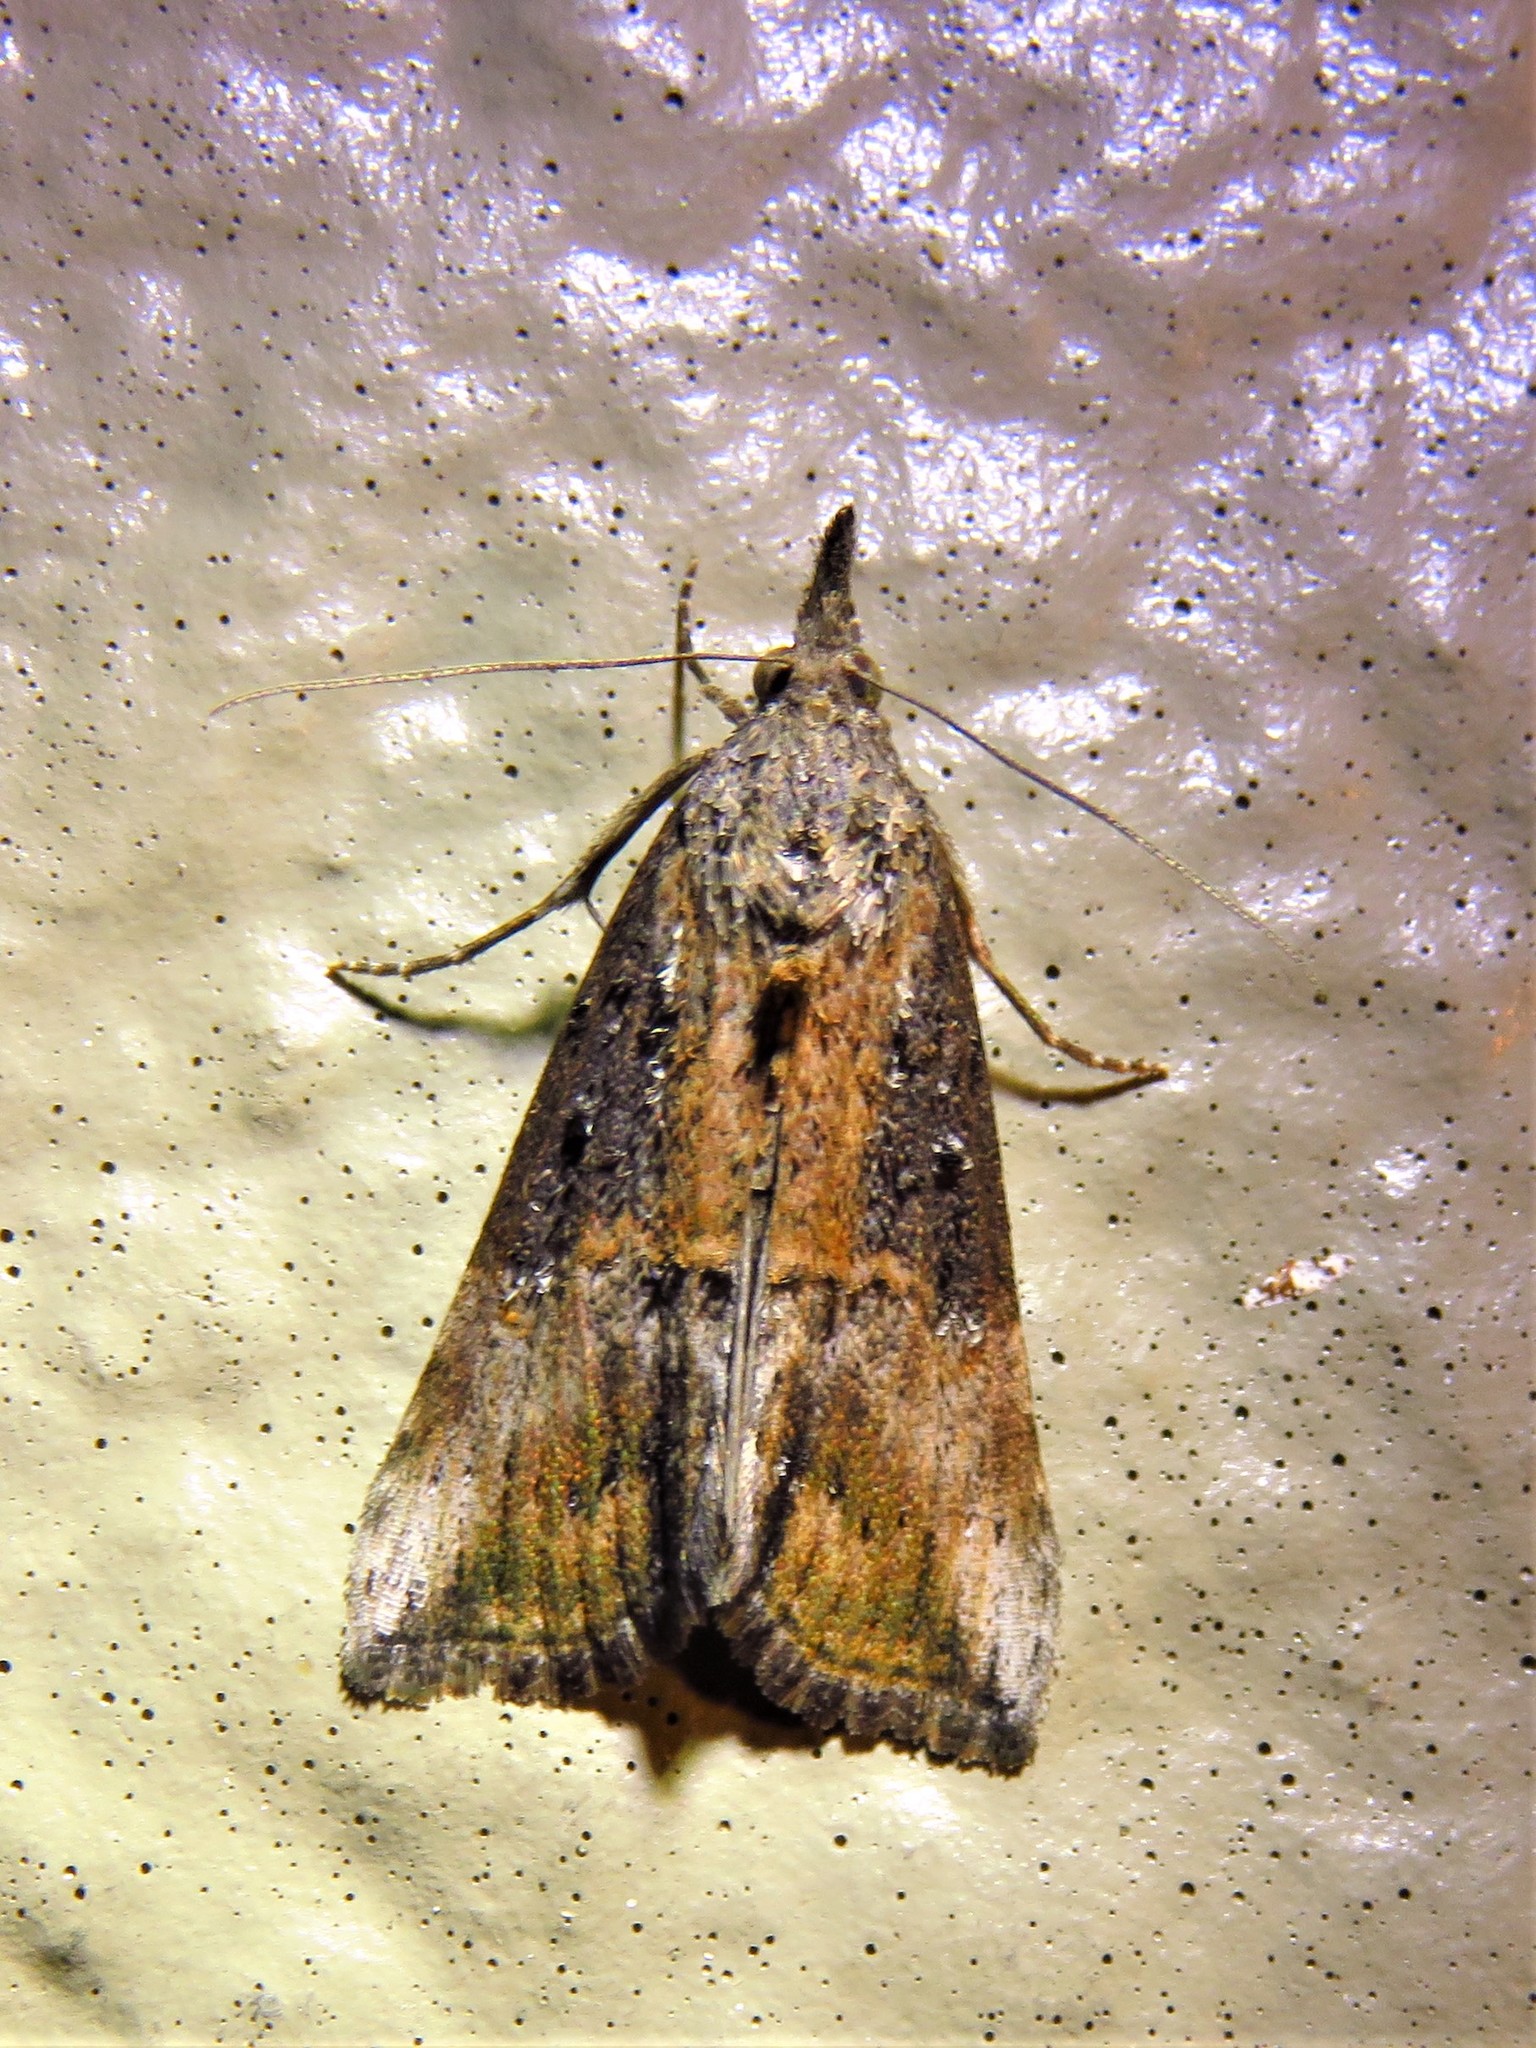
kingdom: Animalia
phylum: Arthropoda
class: Insecta
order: Lepidoptera
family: Erebidae
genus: Hypena
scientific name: Hypena scabra
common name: Green cloverworm
